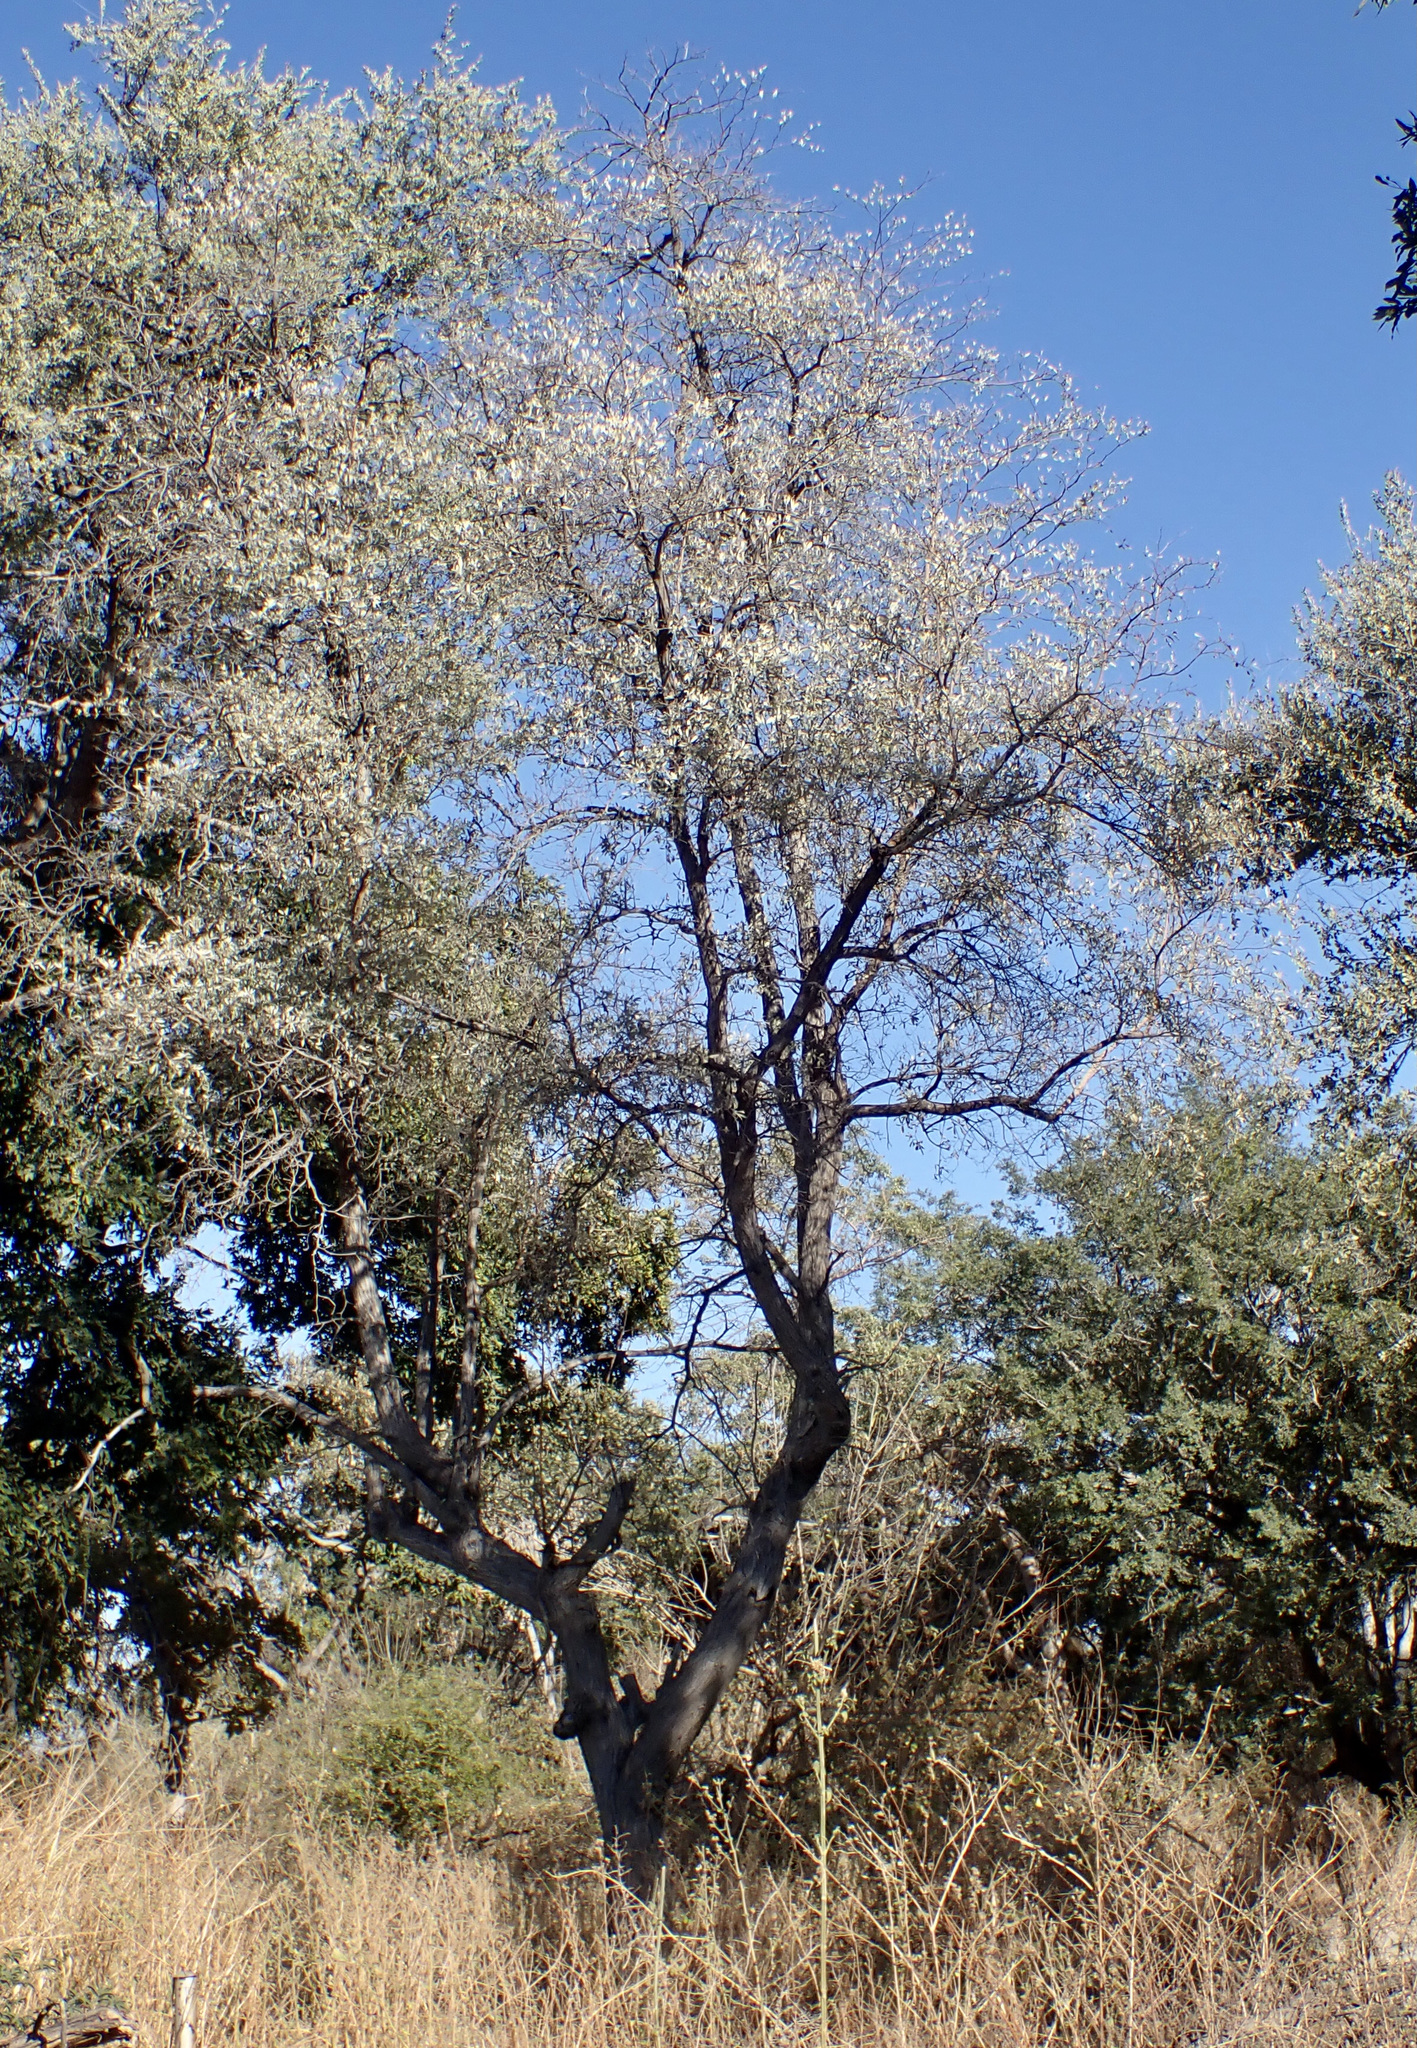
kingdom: Plantae
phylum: Tracheophyta
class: Magnoliopsida
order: Myrtales
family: Combretaceae
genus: Terminalia
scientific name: Terminalia sericea
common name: Clusterleaf
